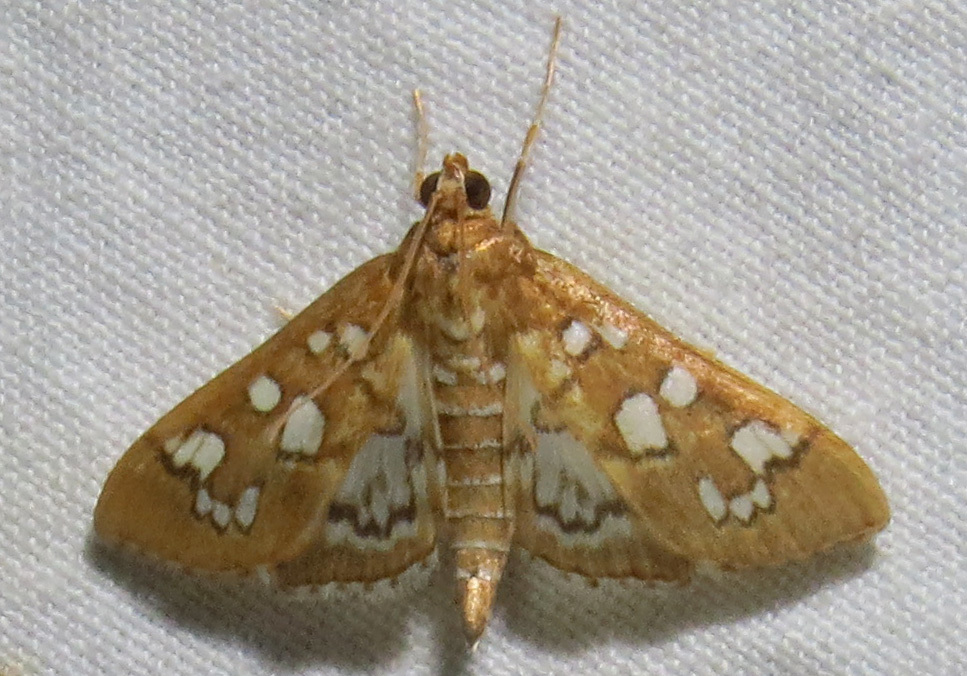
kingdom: Animalia
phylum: Arthropoda
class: Insecta
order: Lepidoptera
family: Crambidae
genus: Samea
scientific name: Samea baccatalis
